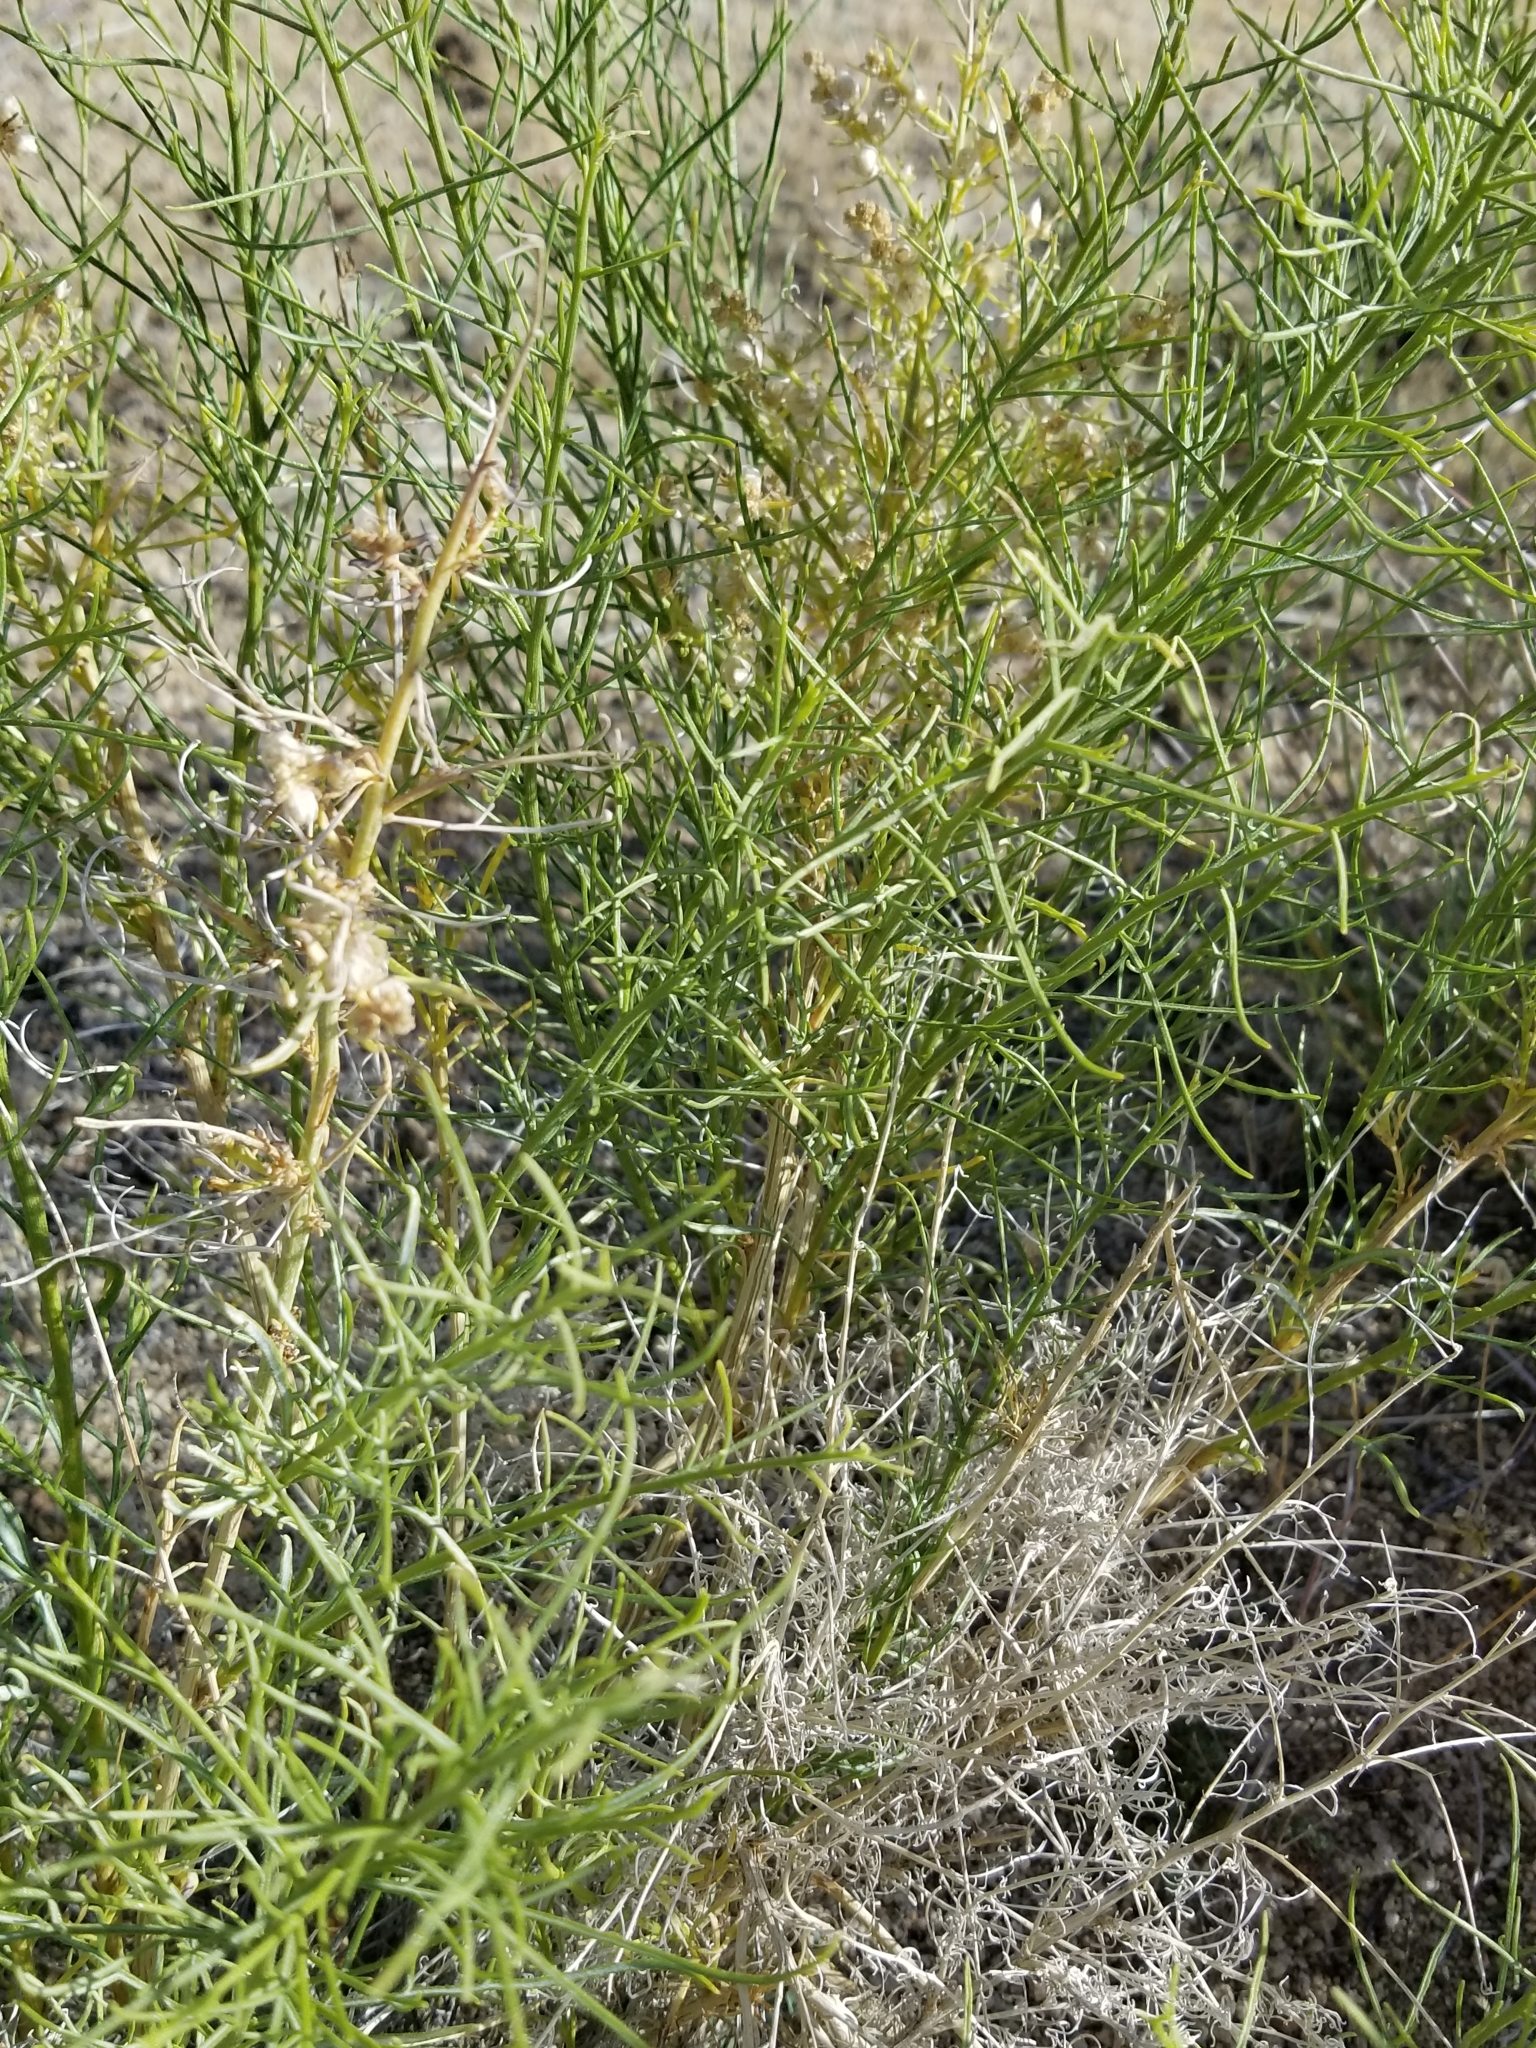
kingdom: Plantae
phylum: Tracheophyta
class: Magnoliopsida
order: Asterales
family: Asteraceae
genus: Ambrosia
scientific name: Ambrosia salsola
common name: Burrobrush
